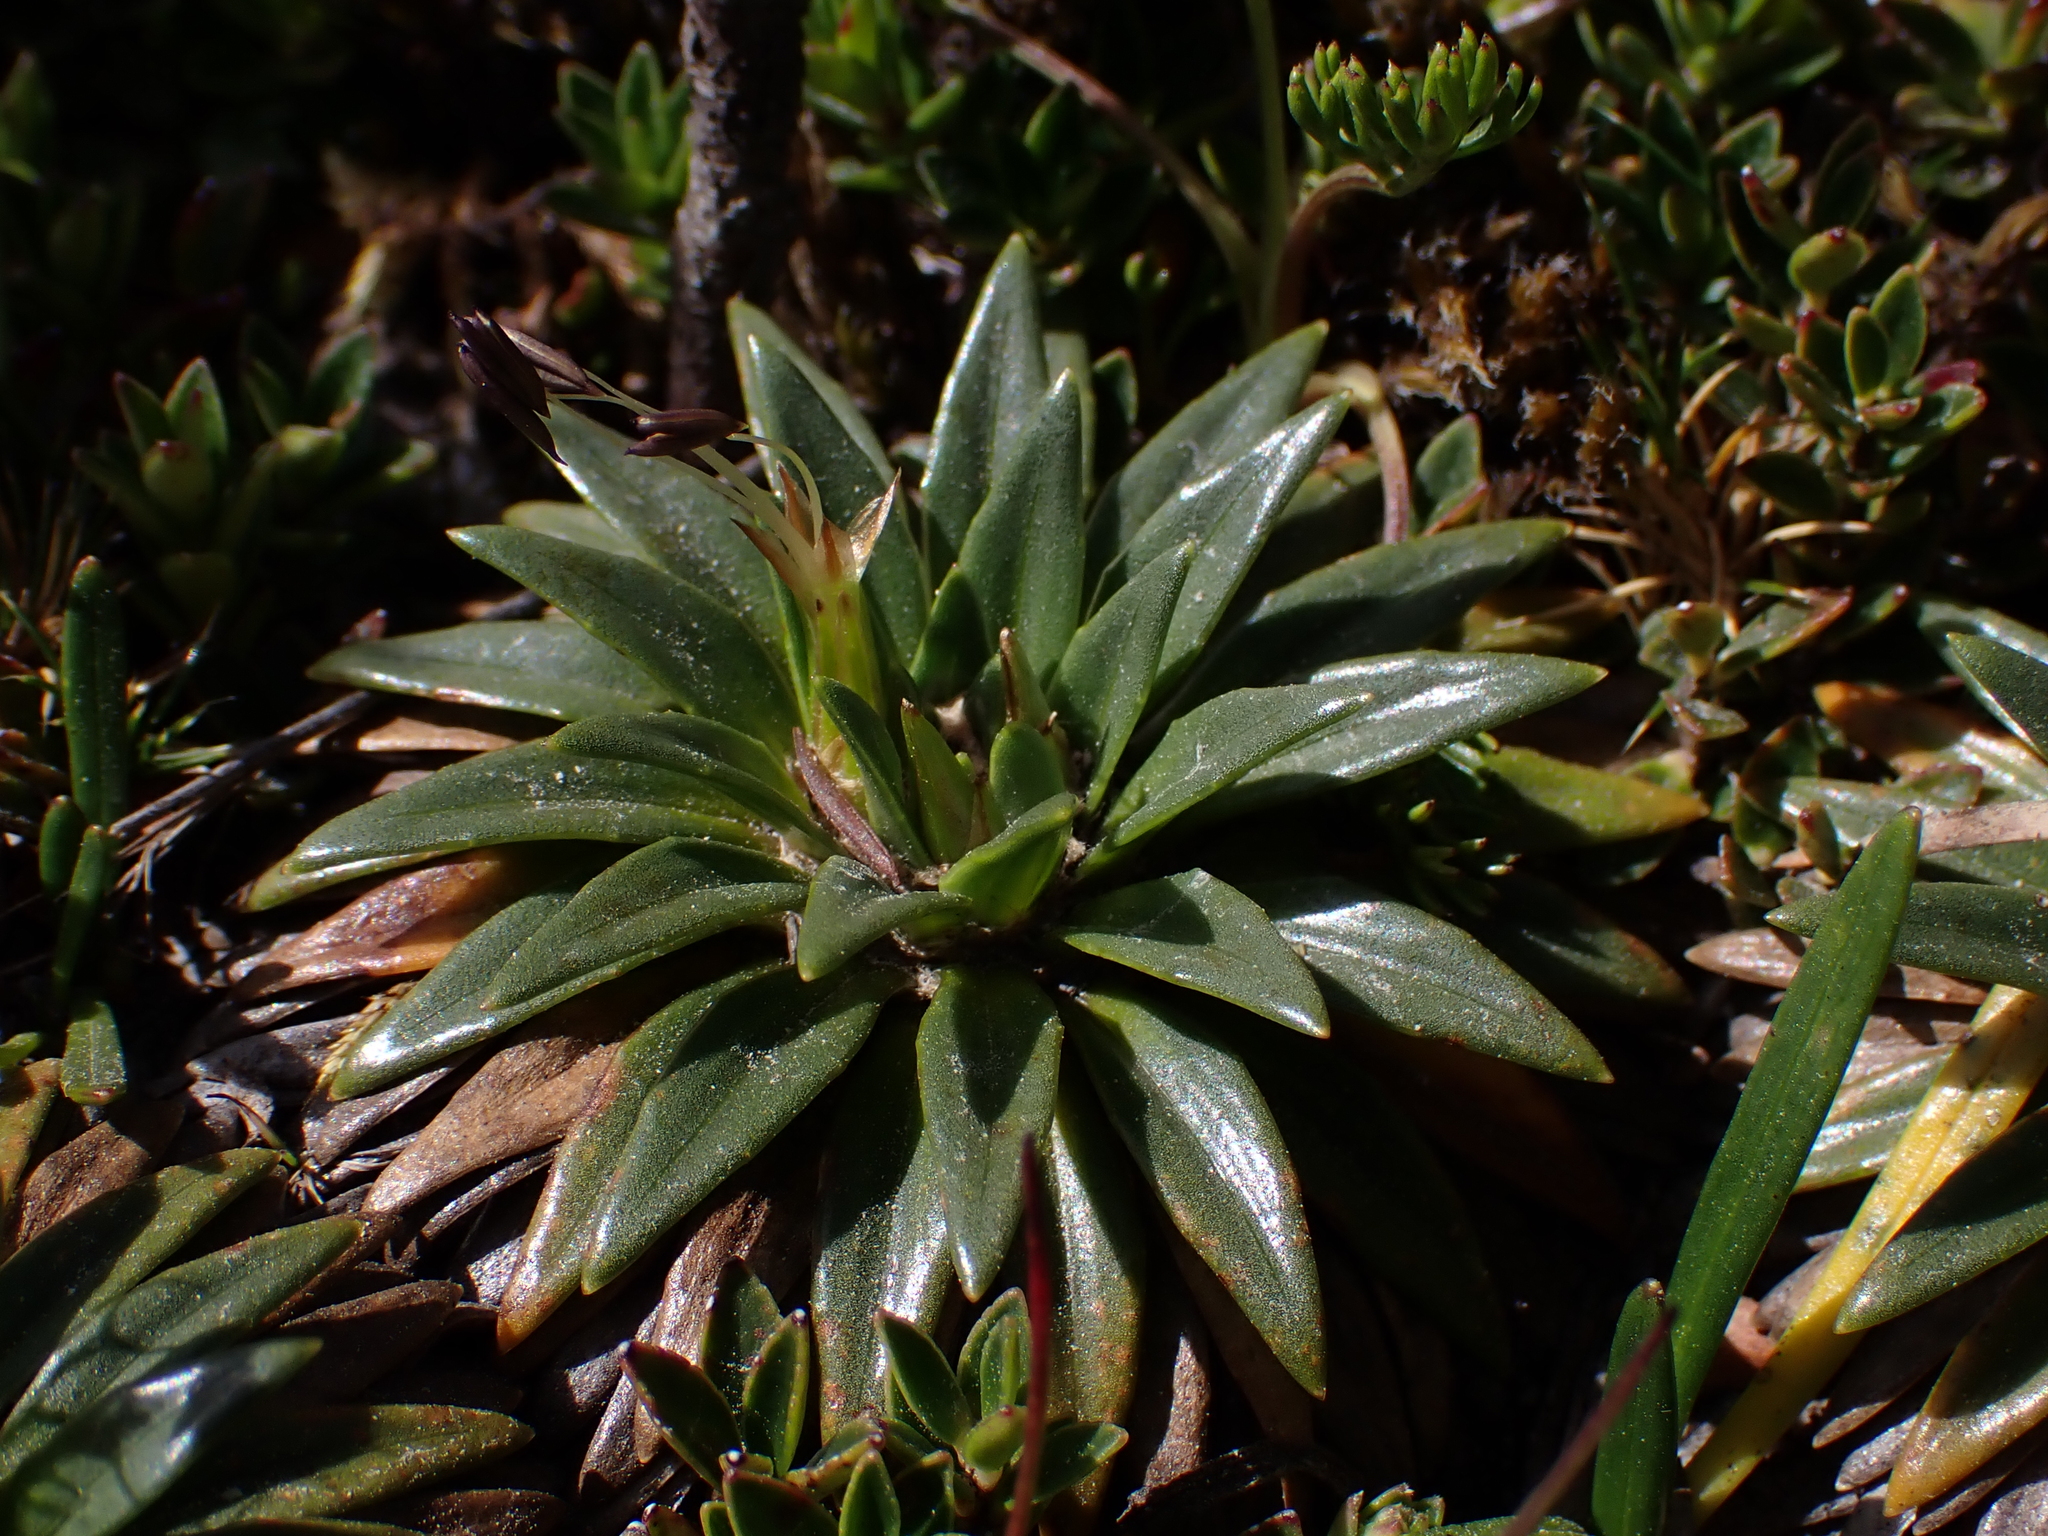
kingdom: Plantae
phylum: Tracheophyta
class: Magnoliopsida
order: Lamiales
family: Plantaginaceae
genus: Plantago
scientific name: Plantago rigida
